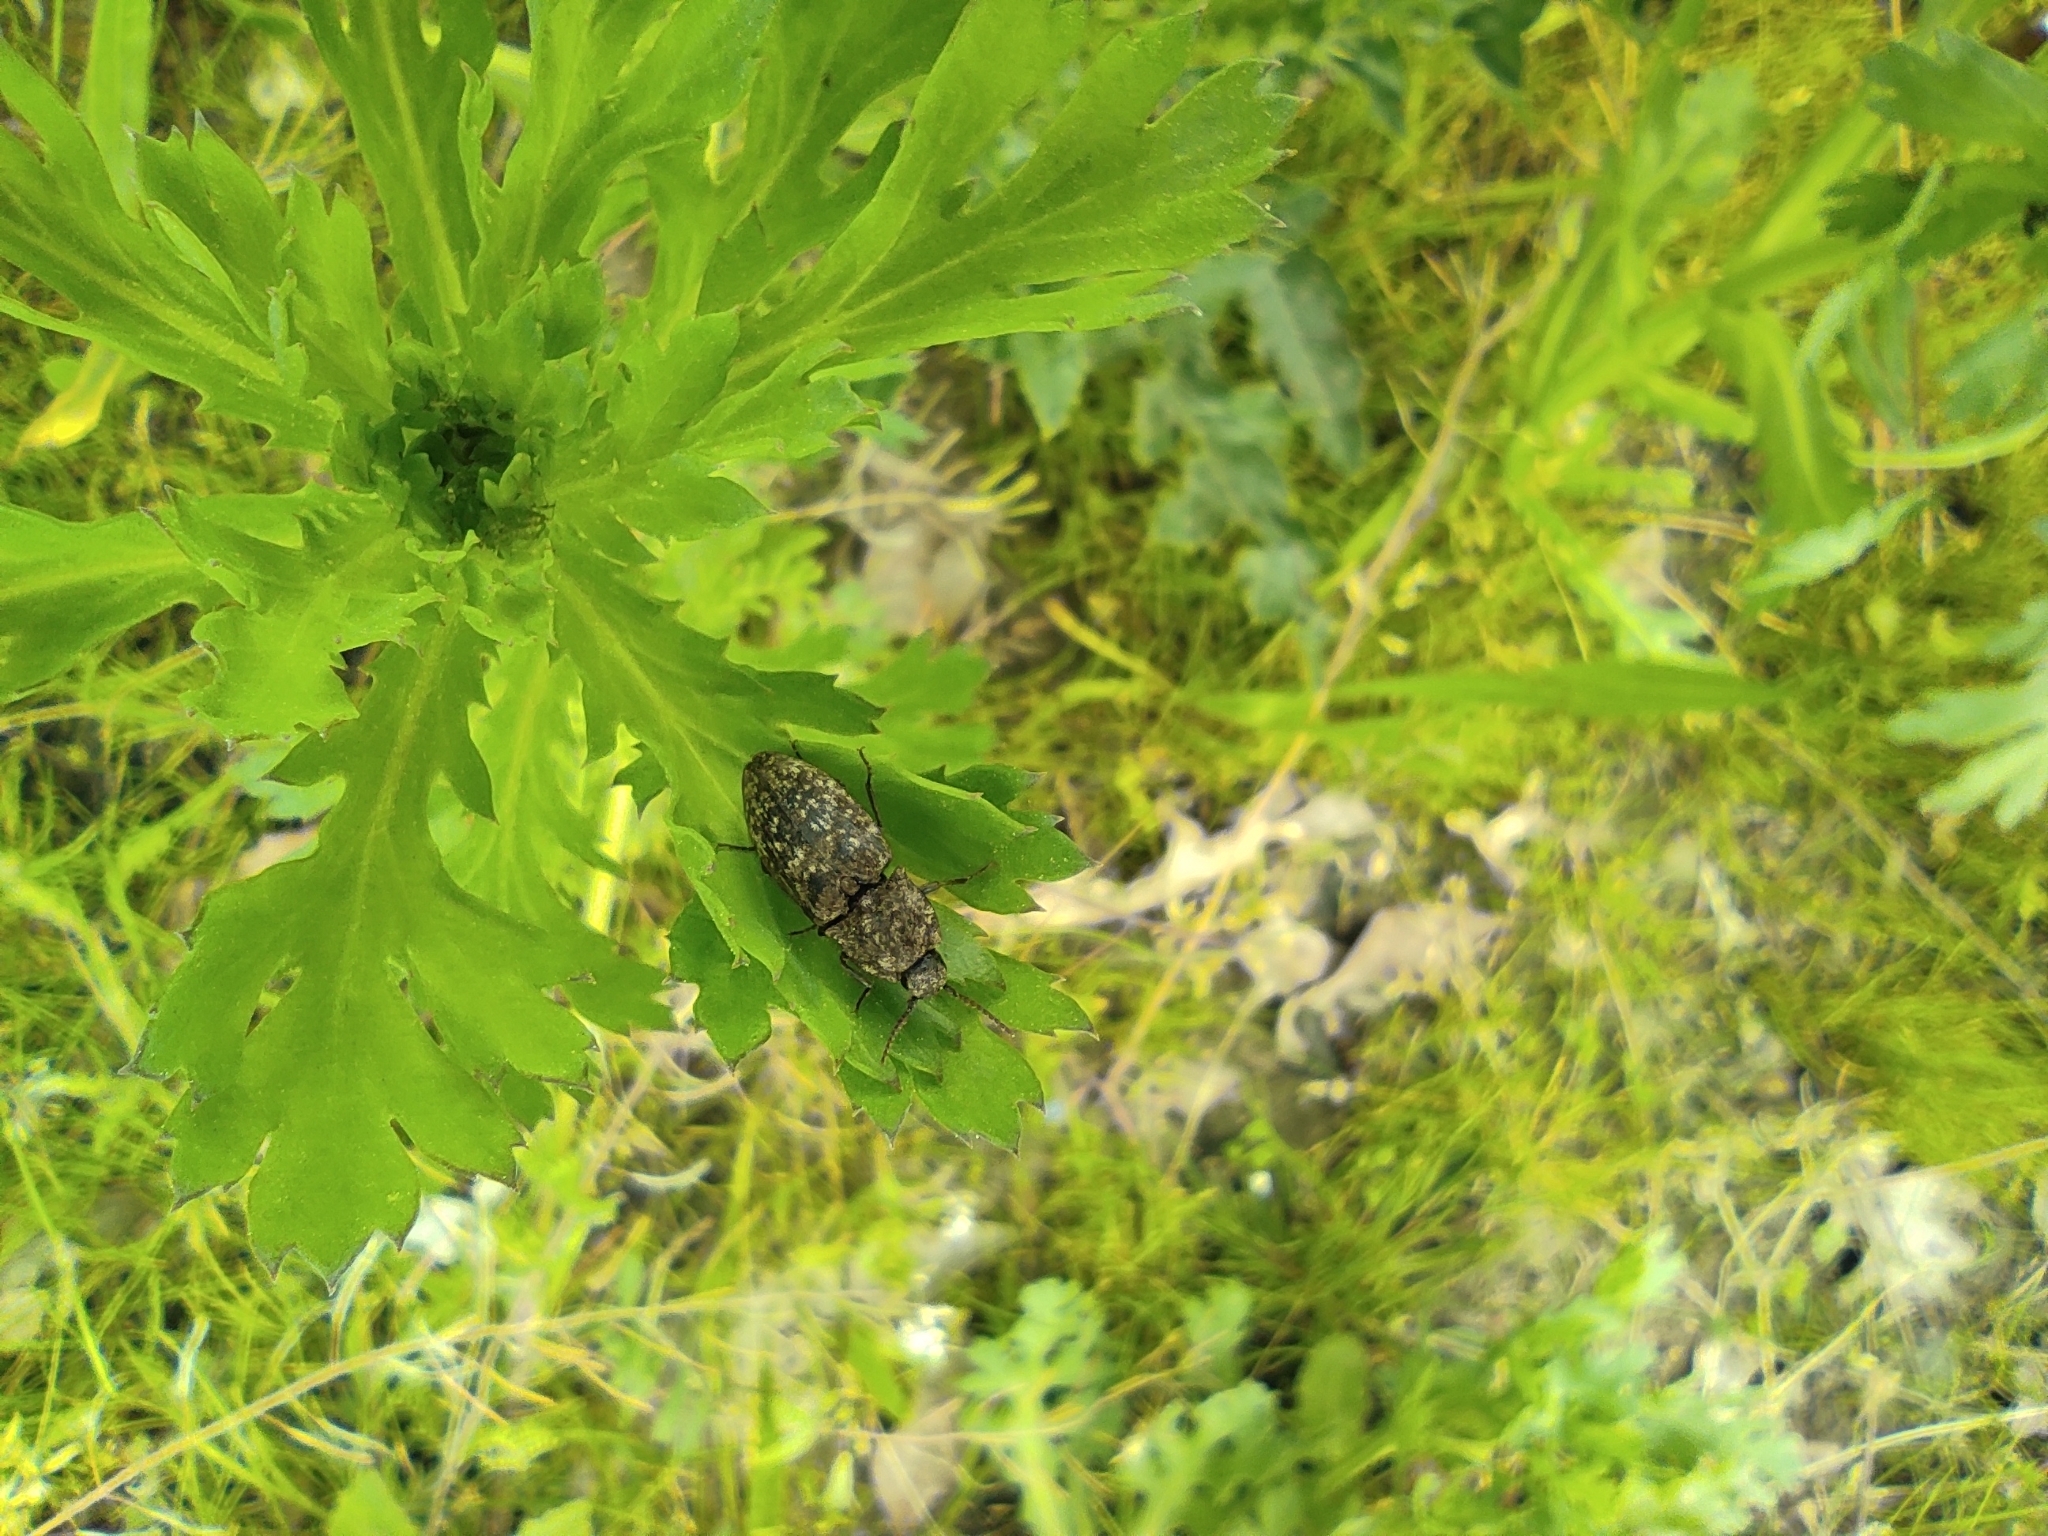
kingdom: Animalia
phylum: Arthropoda
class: Insecta
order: Coleoptera
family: Elateridae
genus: Agrypnus
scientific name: Agrypnus murinus
